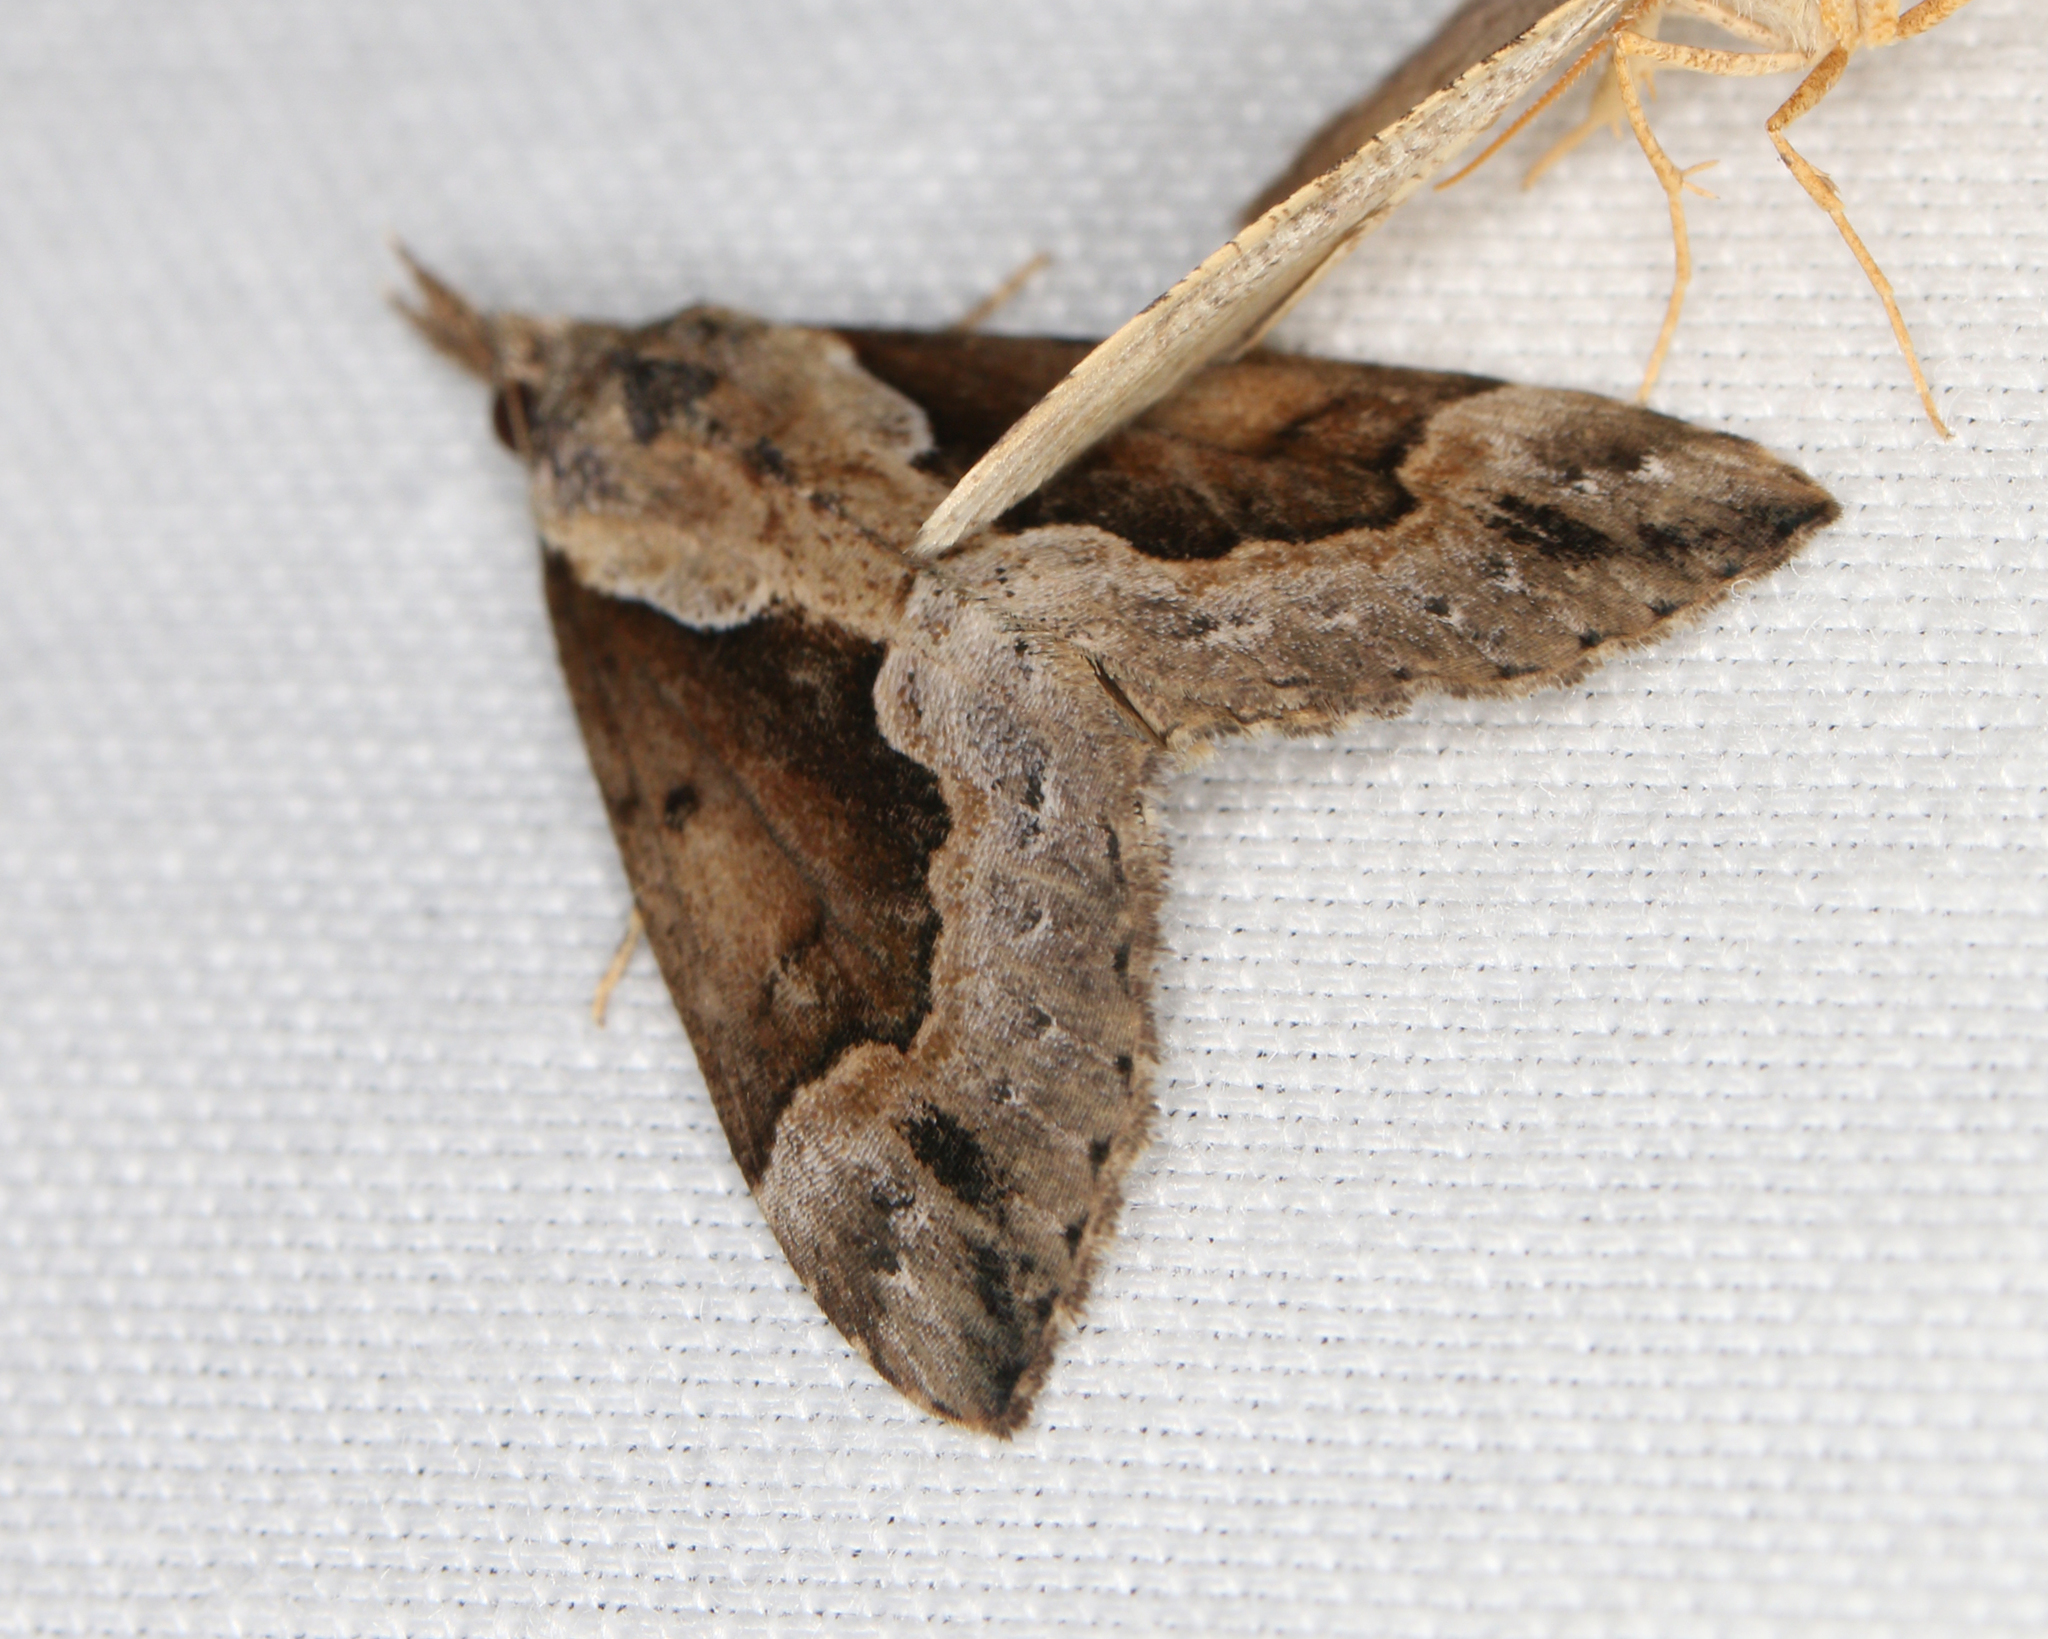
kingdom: Animalia
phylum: Arthropoda
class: Insecta
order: Lepidoptera
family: Erebidae
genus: Hypena
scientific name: Hypena baltimoralis
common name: Baltimore snout
